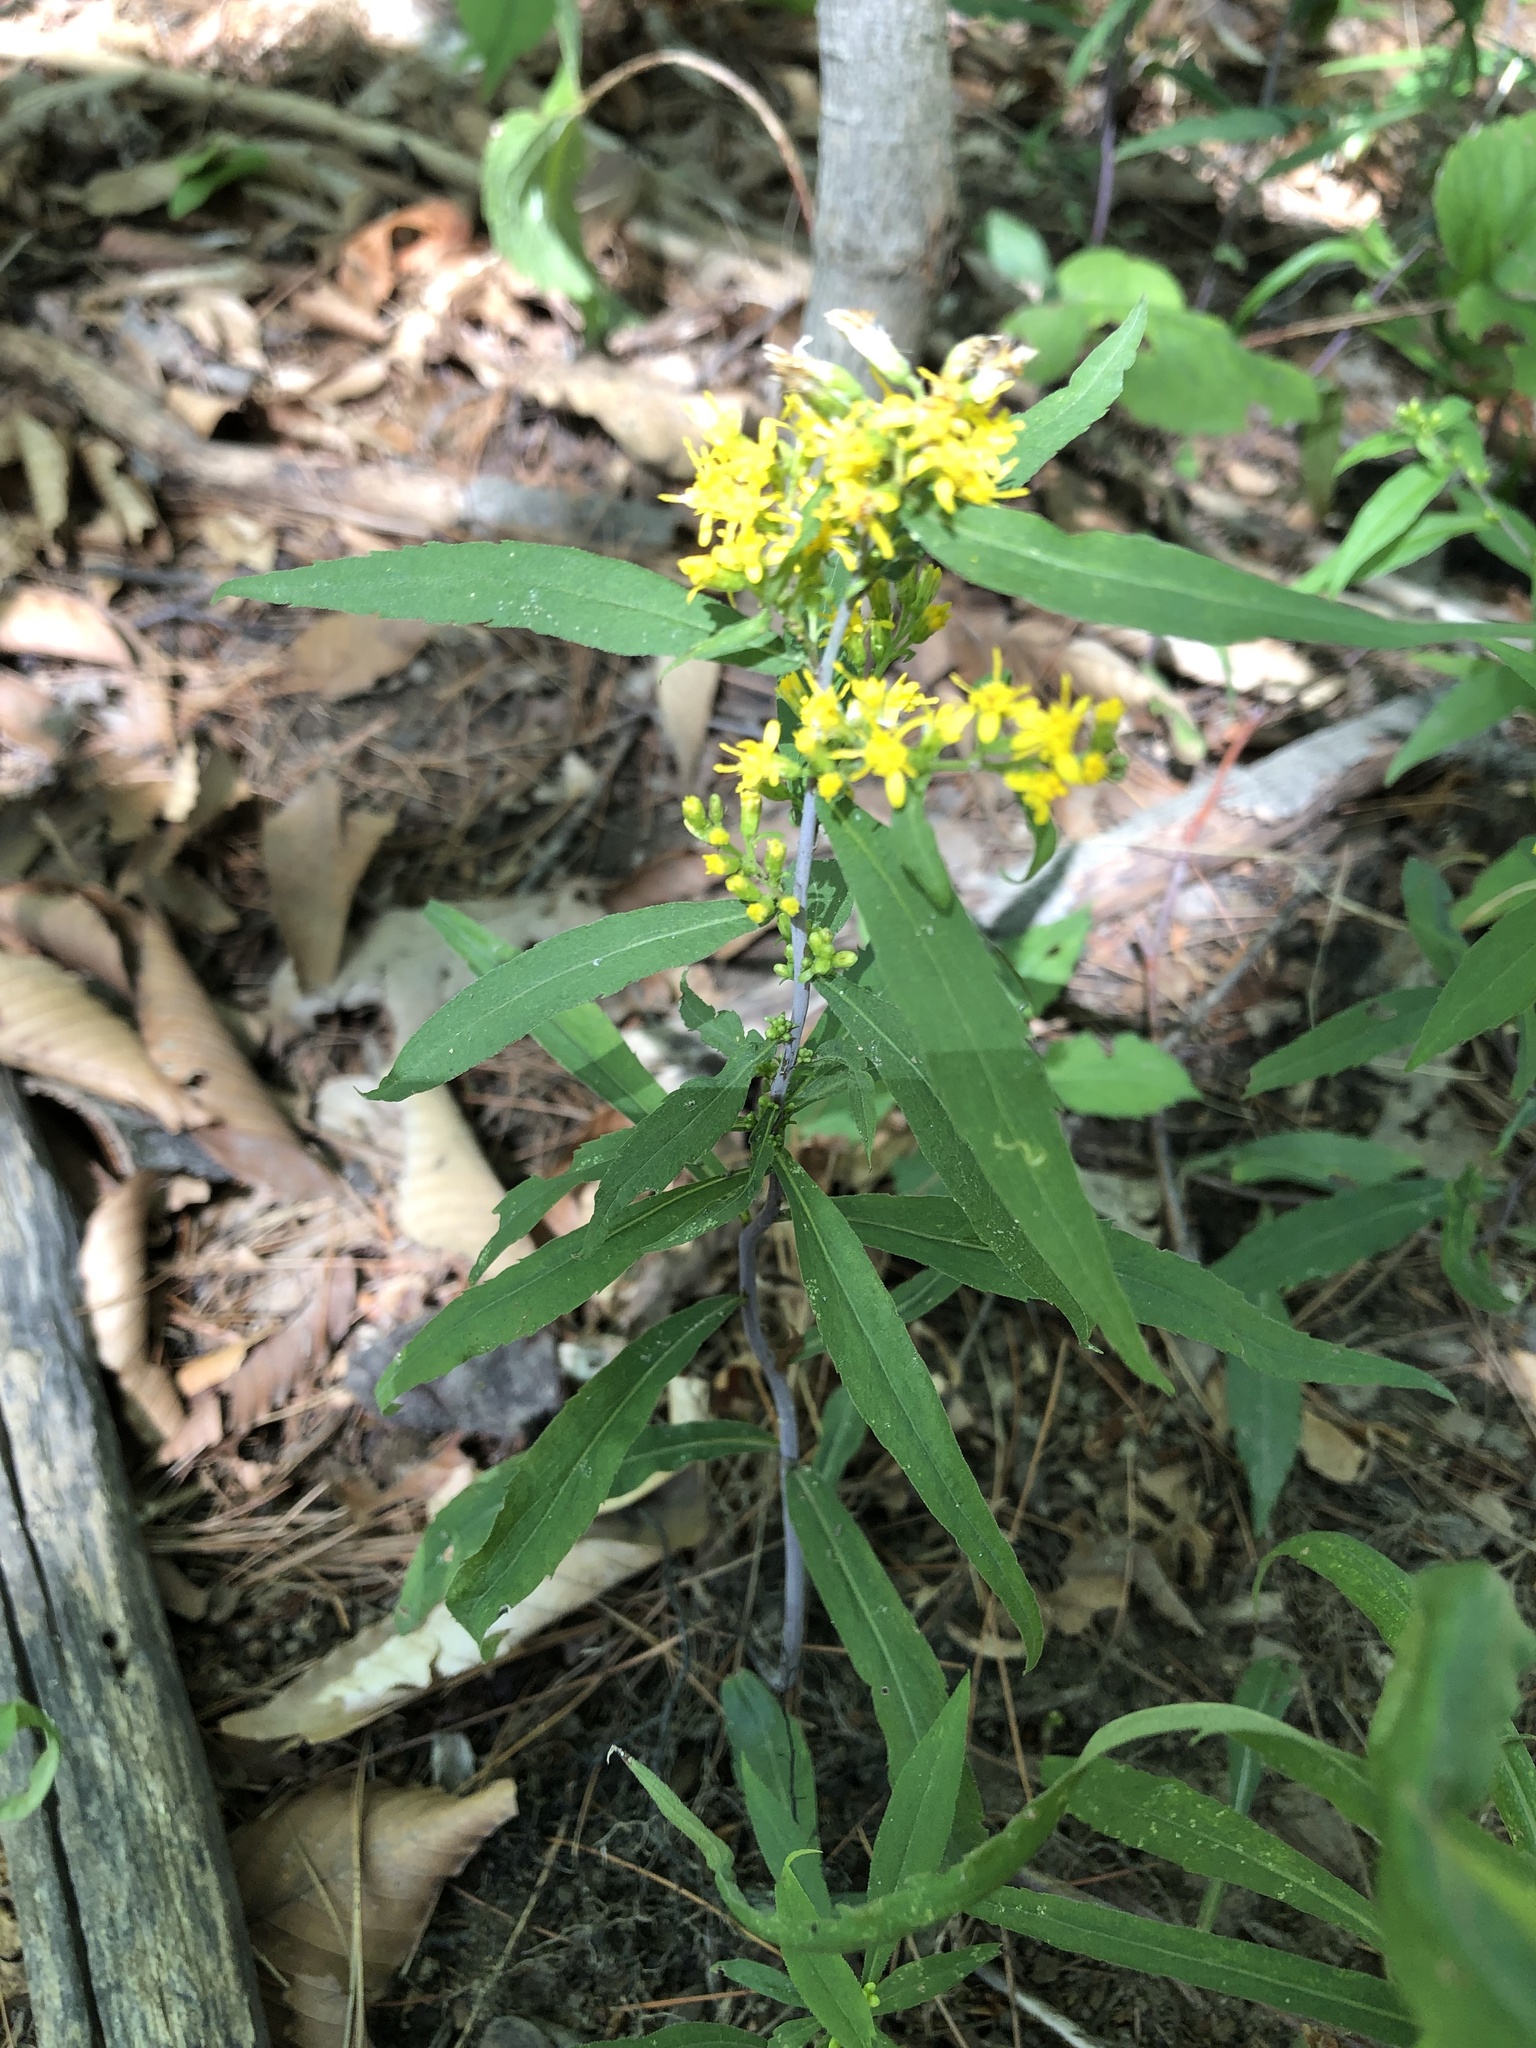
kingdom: Plantae
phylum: Tracheophyta
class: Magnoliopsida
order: Asterales
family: Asteraceae
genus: Solidago
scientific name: Solidago caesia
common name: Woodland goldenrod
